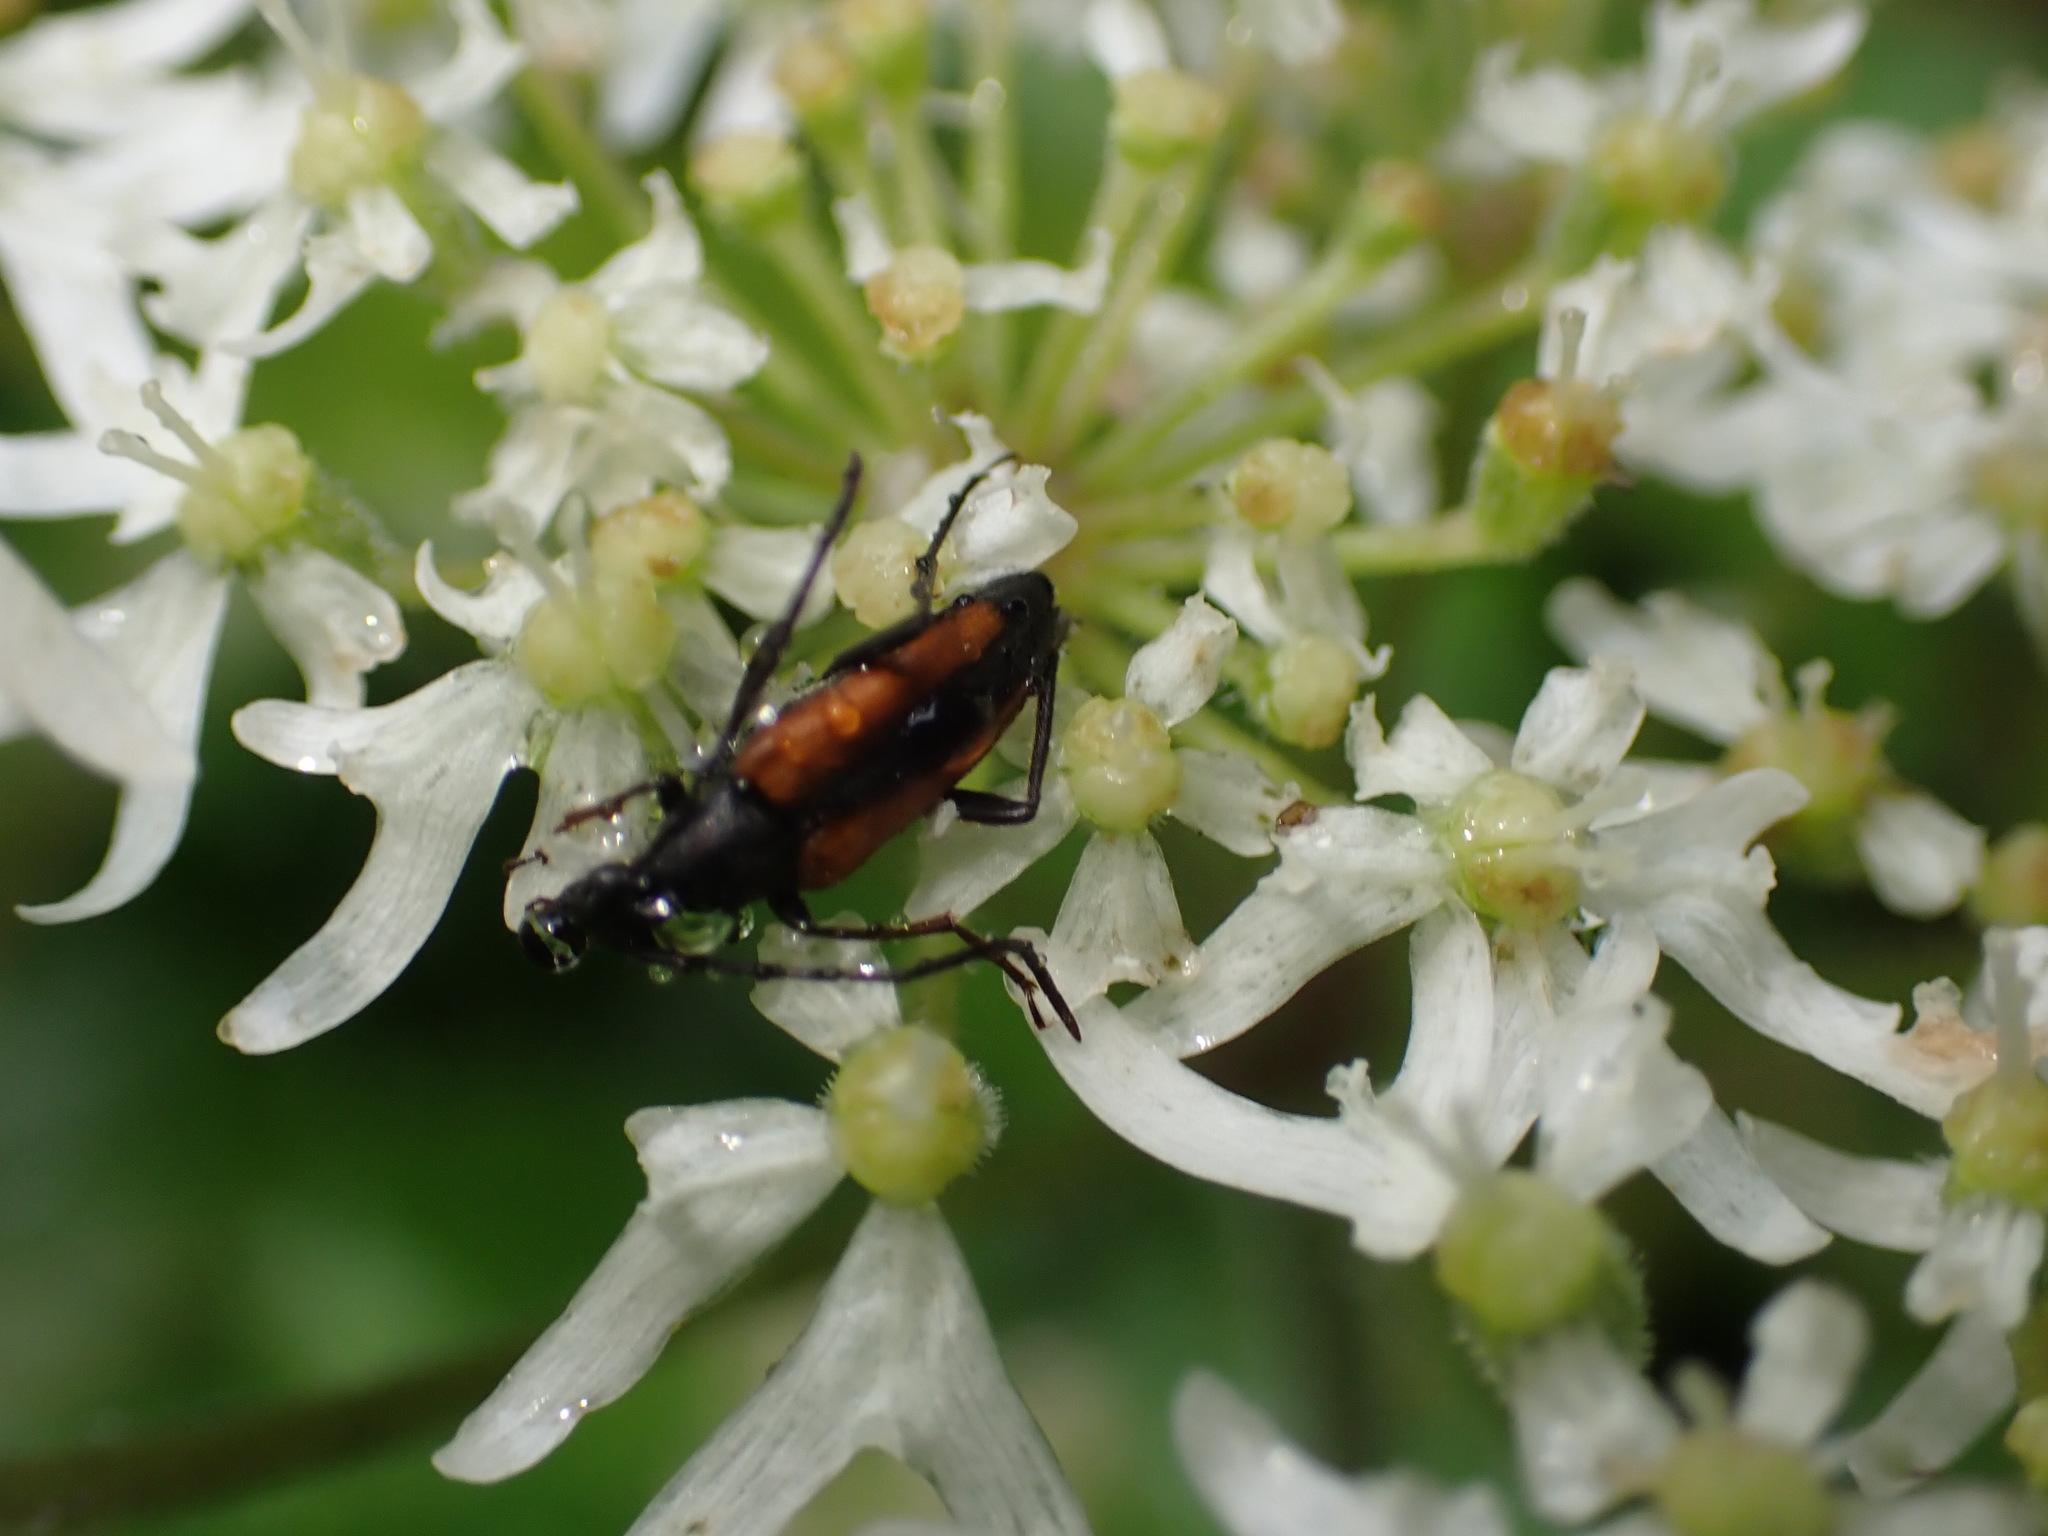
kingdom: Animalia
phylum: Arthropoda
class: Insecta
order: Coleoptera
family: Cerambycidae
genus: Stenurella
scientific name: Stenurella melanura
